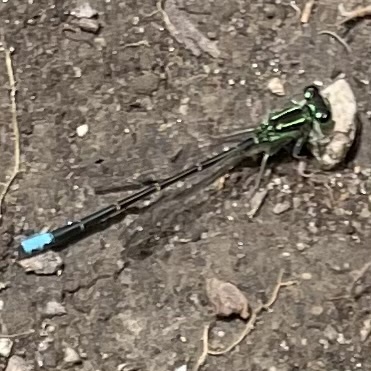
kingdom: Animalia
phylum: Arthropoda
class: Insecta
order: Odonata
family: Coenagrionidae
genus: Ischnura
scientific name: Ischnura verticalis
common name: Eastern forktail
